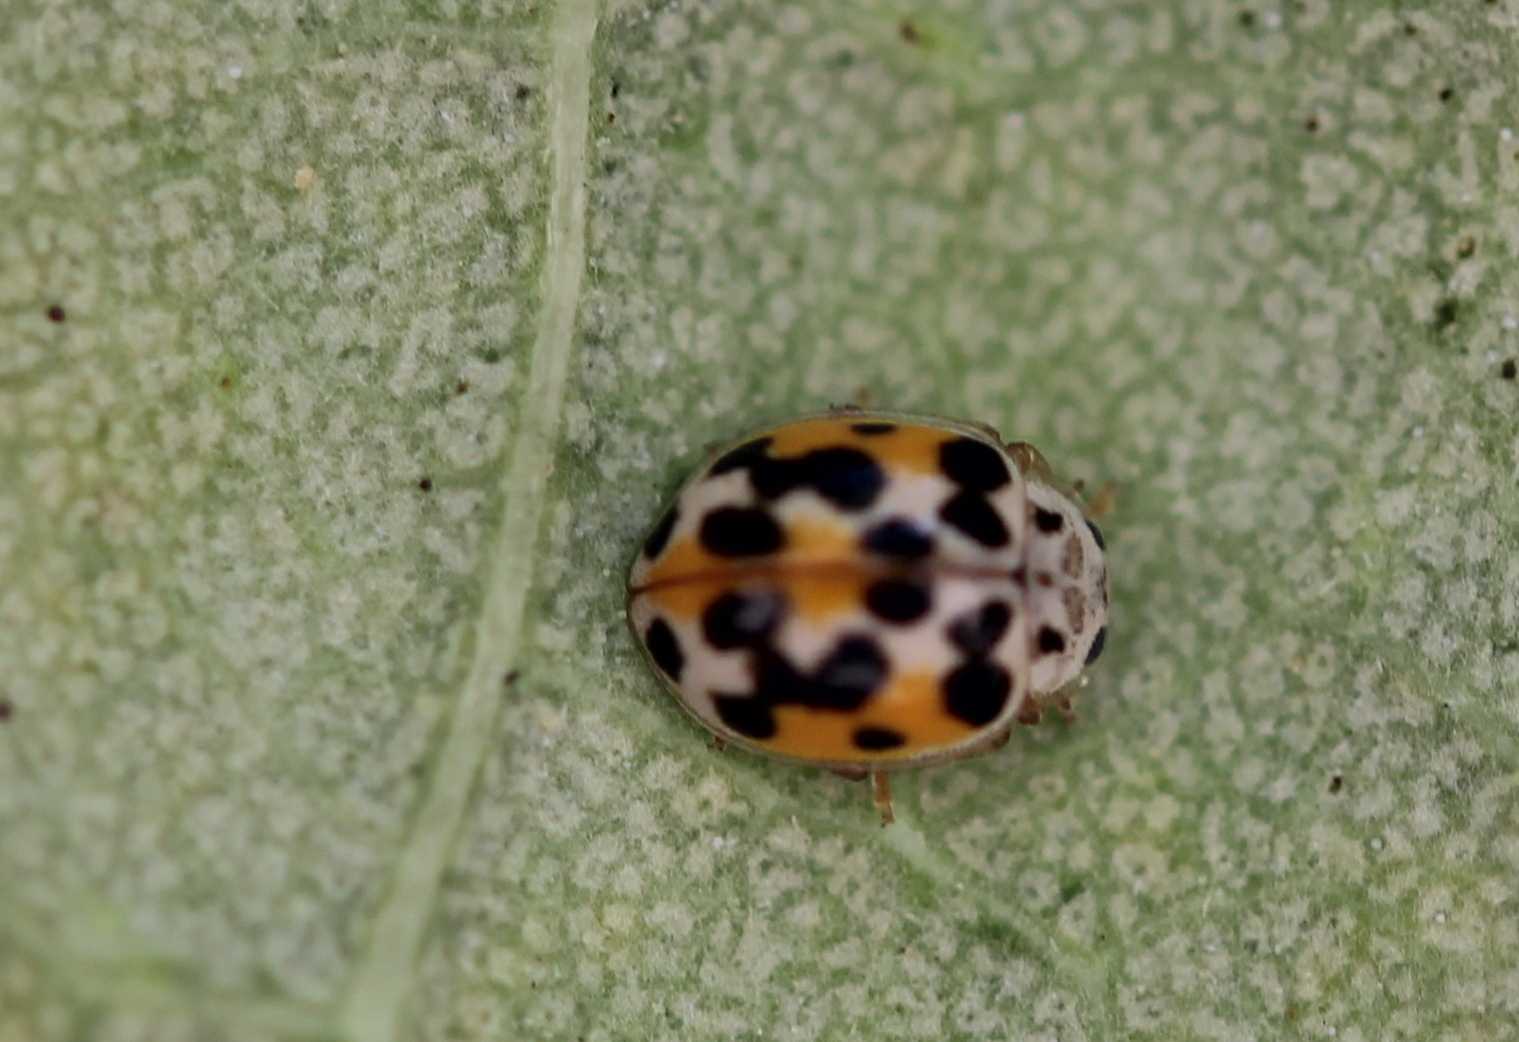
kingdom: Animalia
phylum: Arthropoda
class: Insecta
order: Coleoptera
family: Coccinellidae
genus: Psyllobora
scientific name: Psyllobora vigintimaculata
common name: Ladybird beetle
